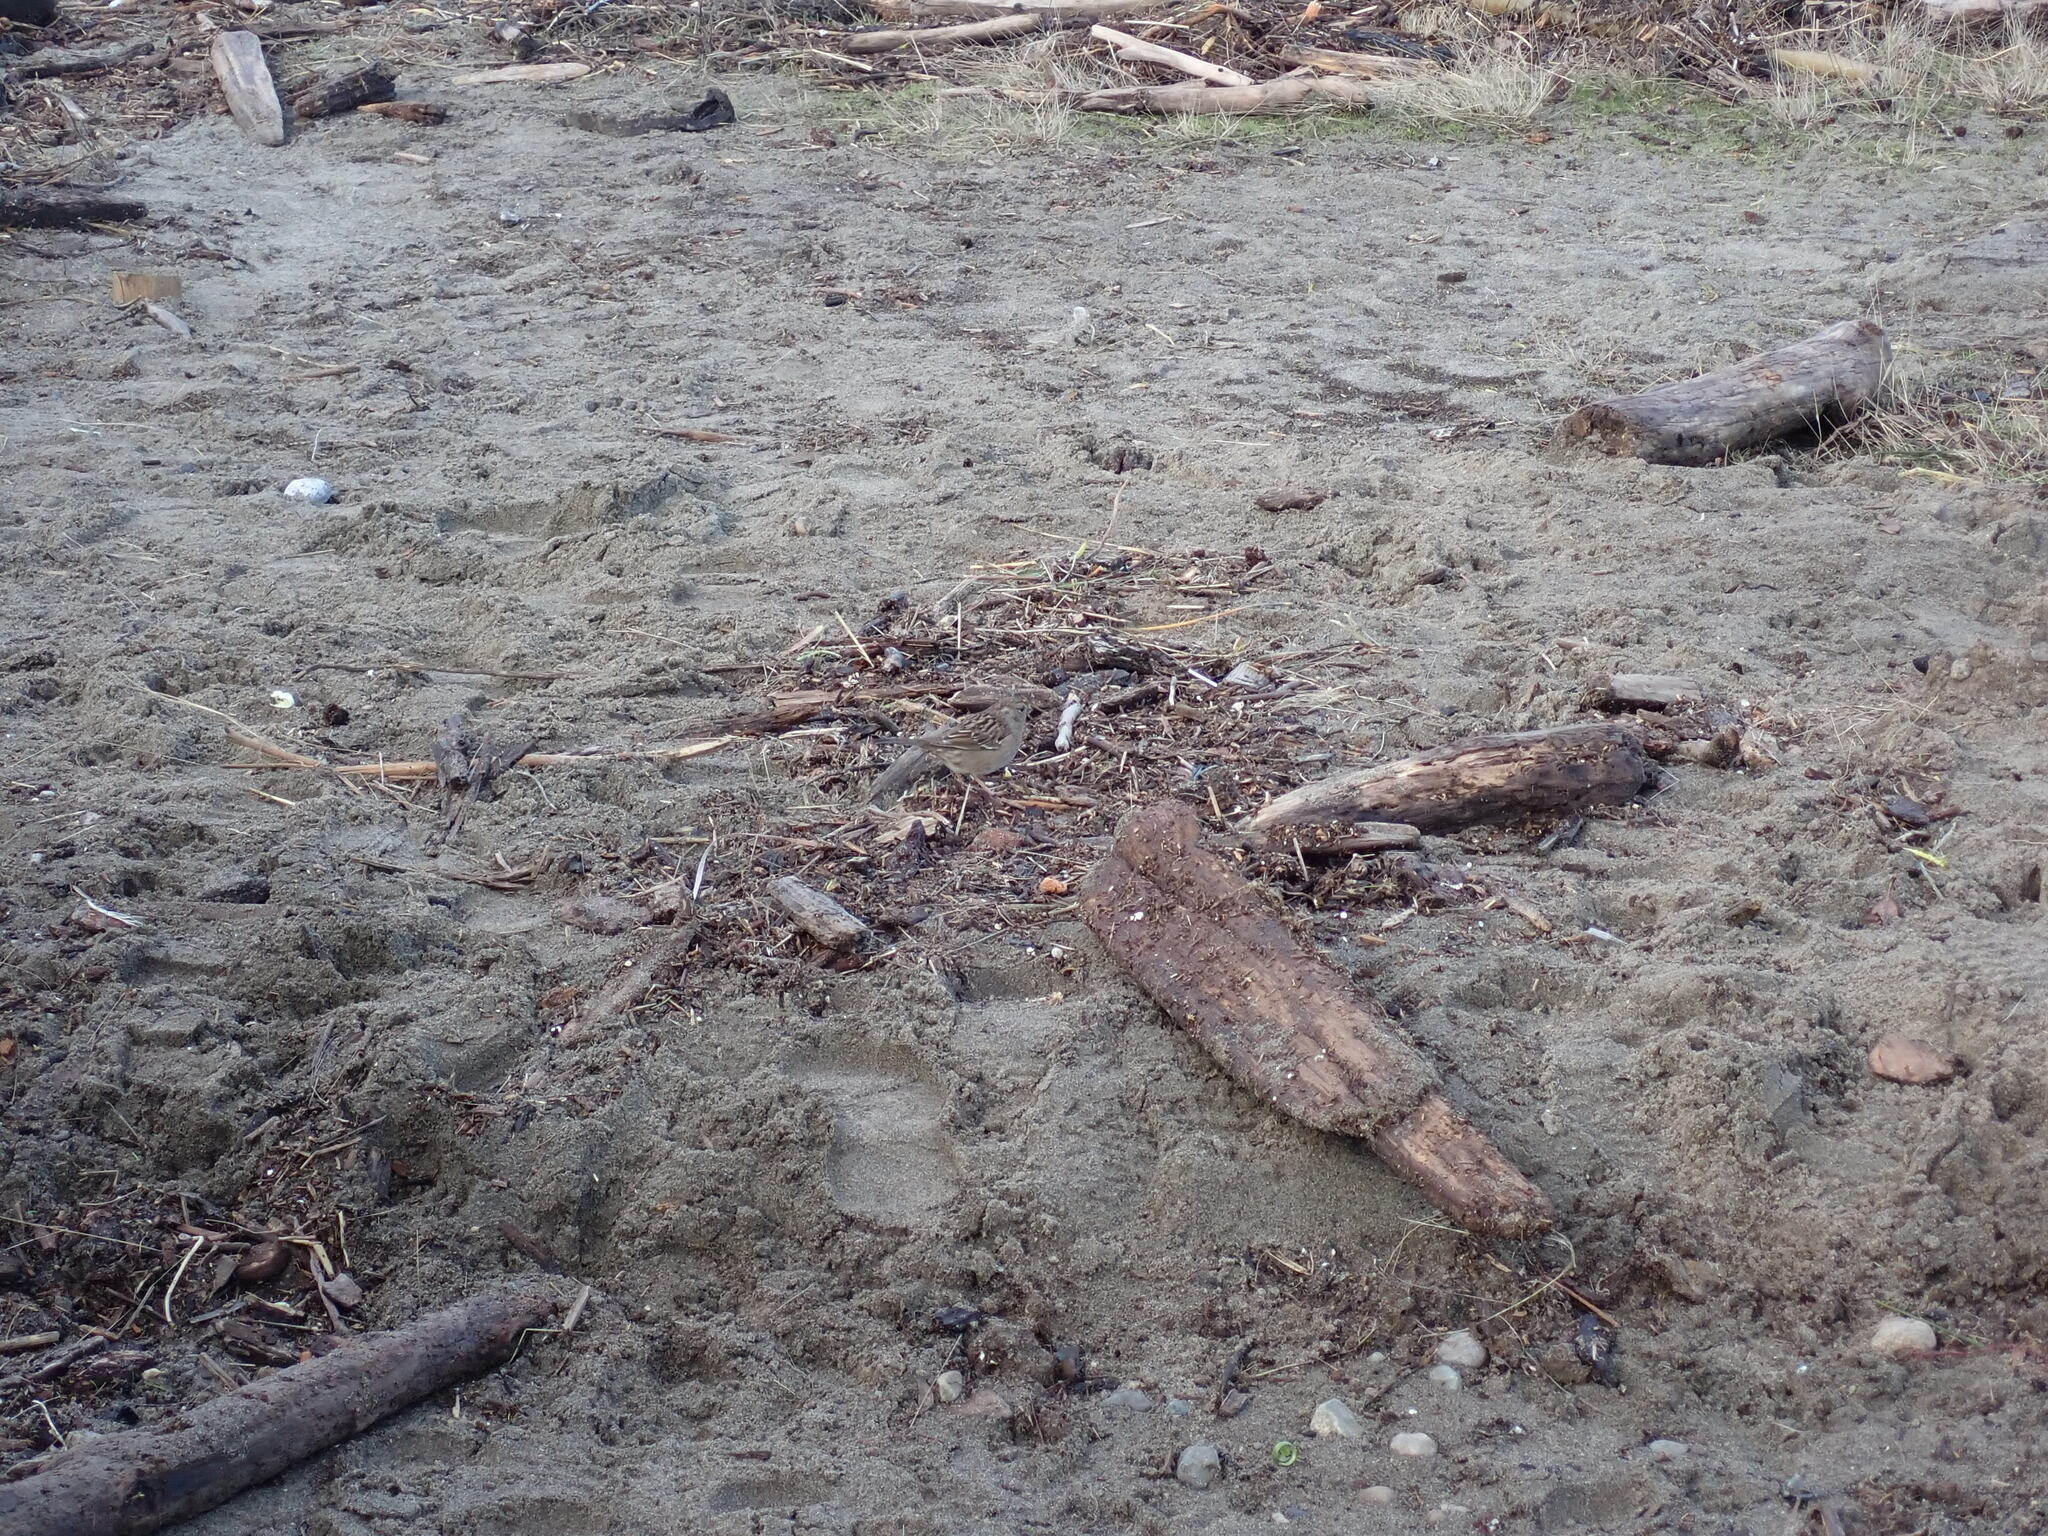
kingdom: Animalia
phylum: Chordata
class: Aves
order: Passeriformes
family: Passerellidae
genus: Zonotrichia
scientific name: Zonotrichia atricapilla
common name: Golden-crowned sparrow
